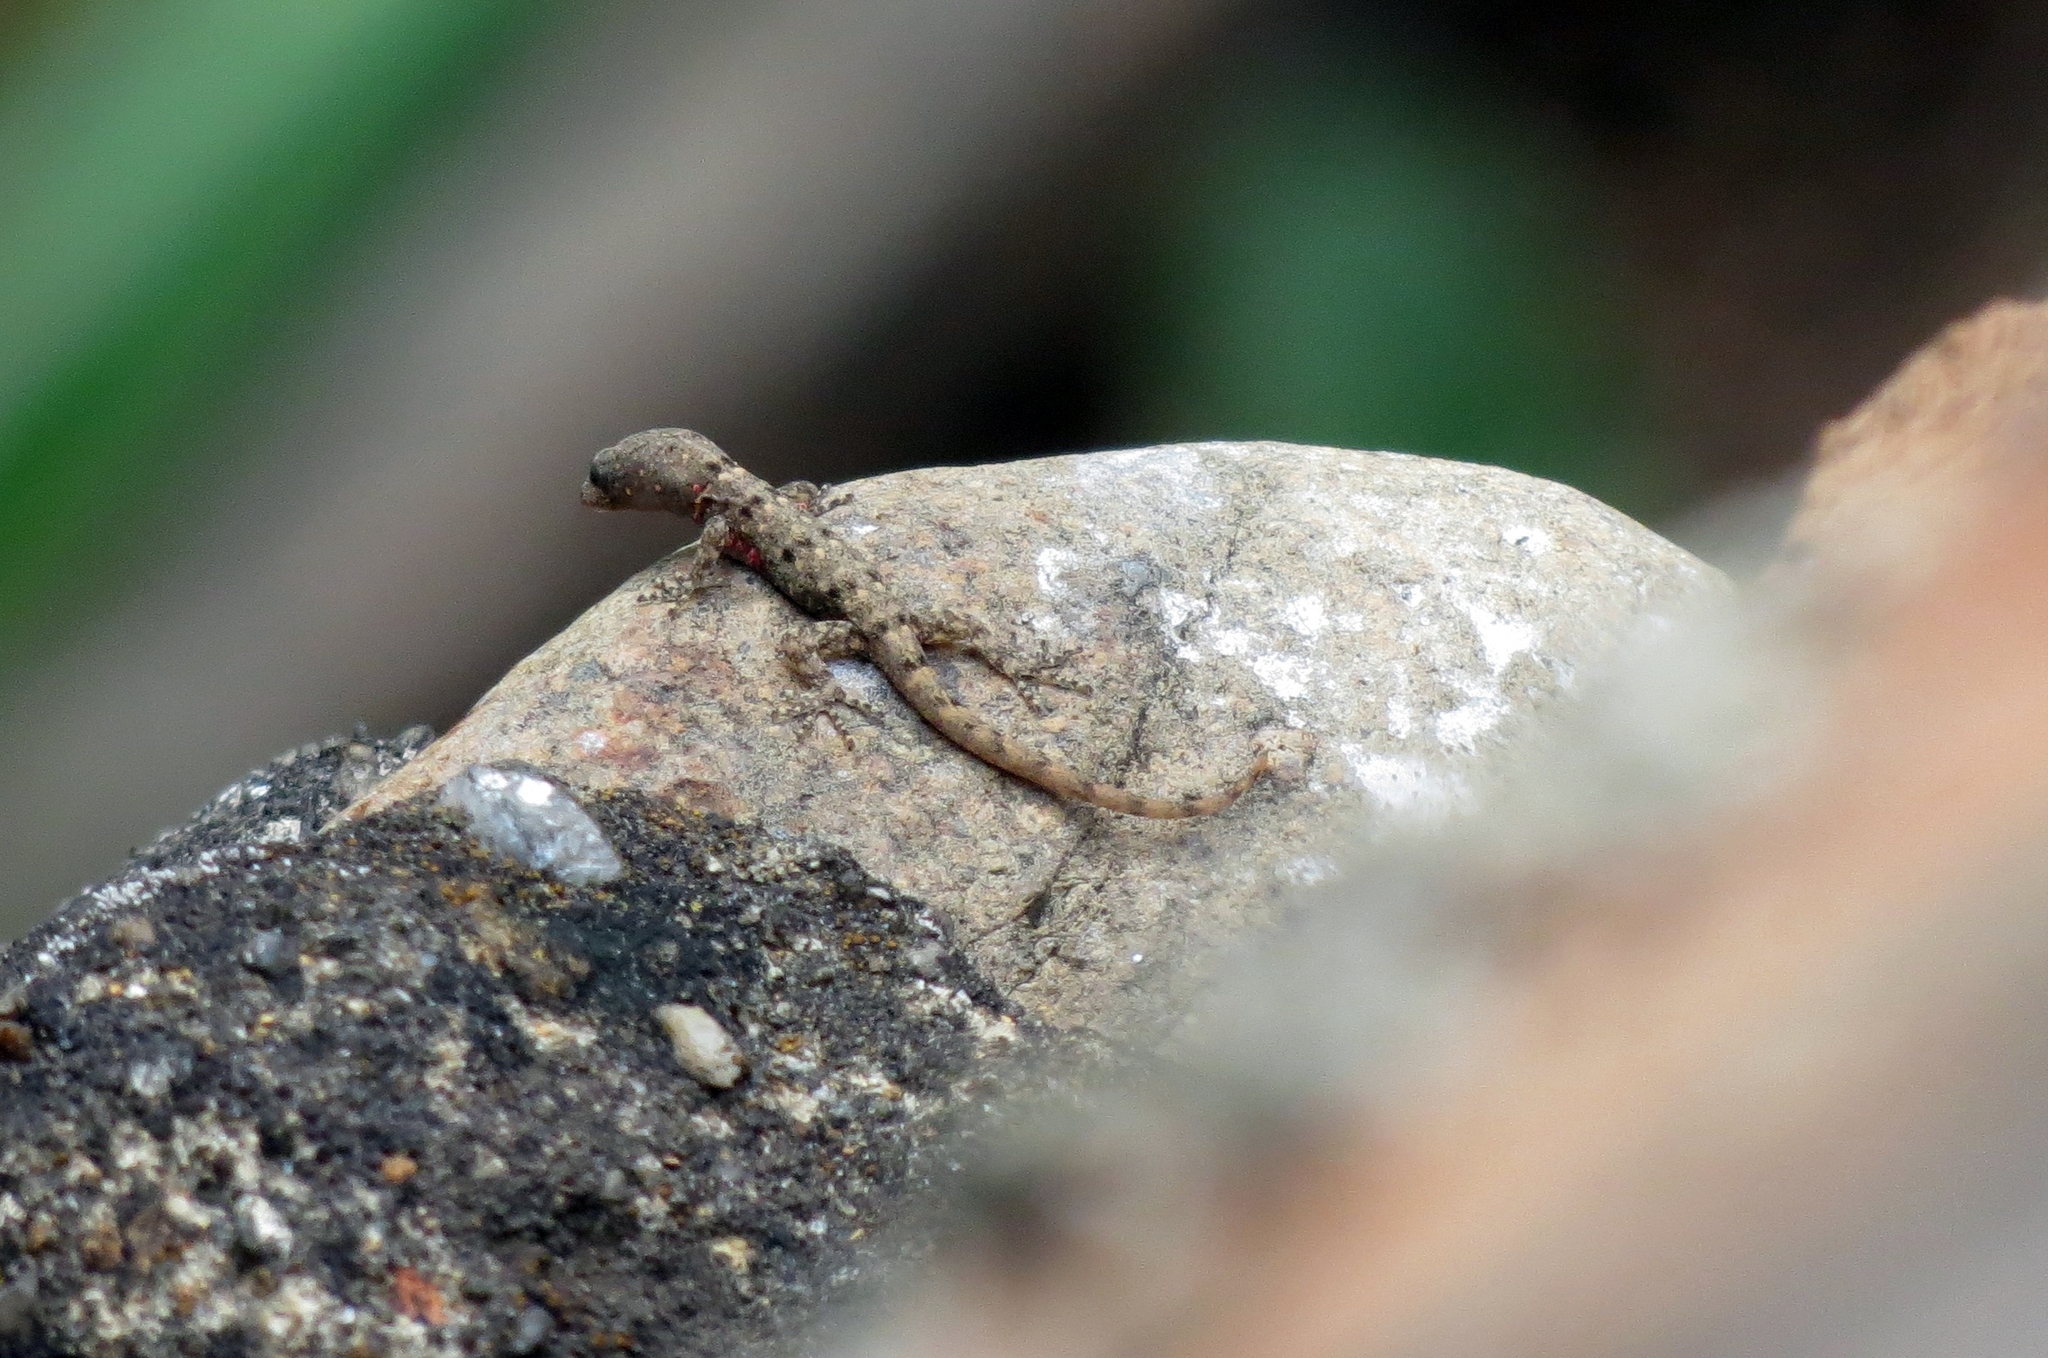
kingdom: Animalia
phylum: Chordata
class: Squamata
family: Sphaerodactylidae
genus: Gonatodes
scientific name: Gonatodes albogularis
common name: Yellow-headed gecko
